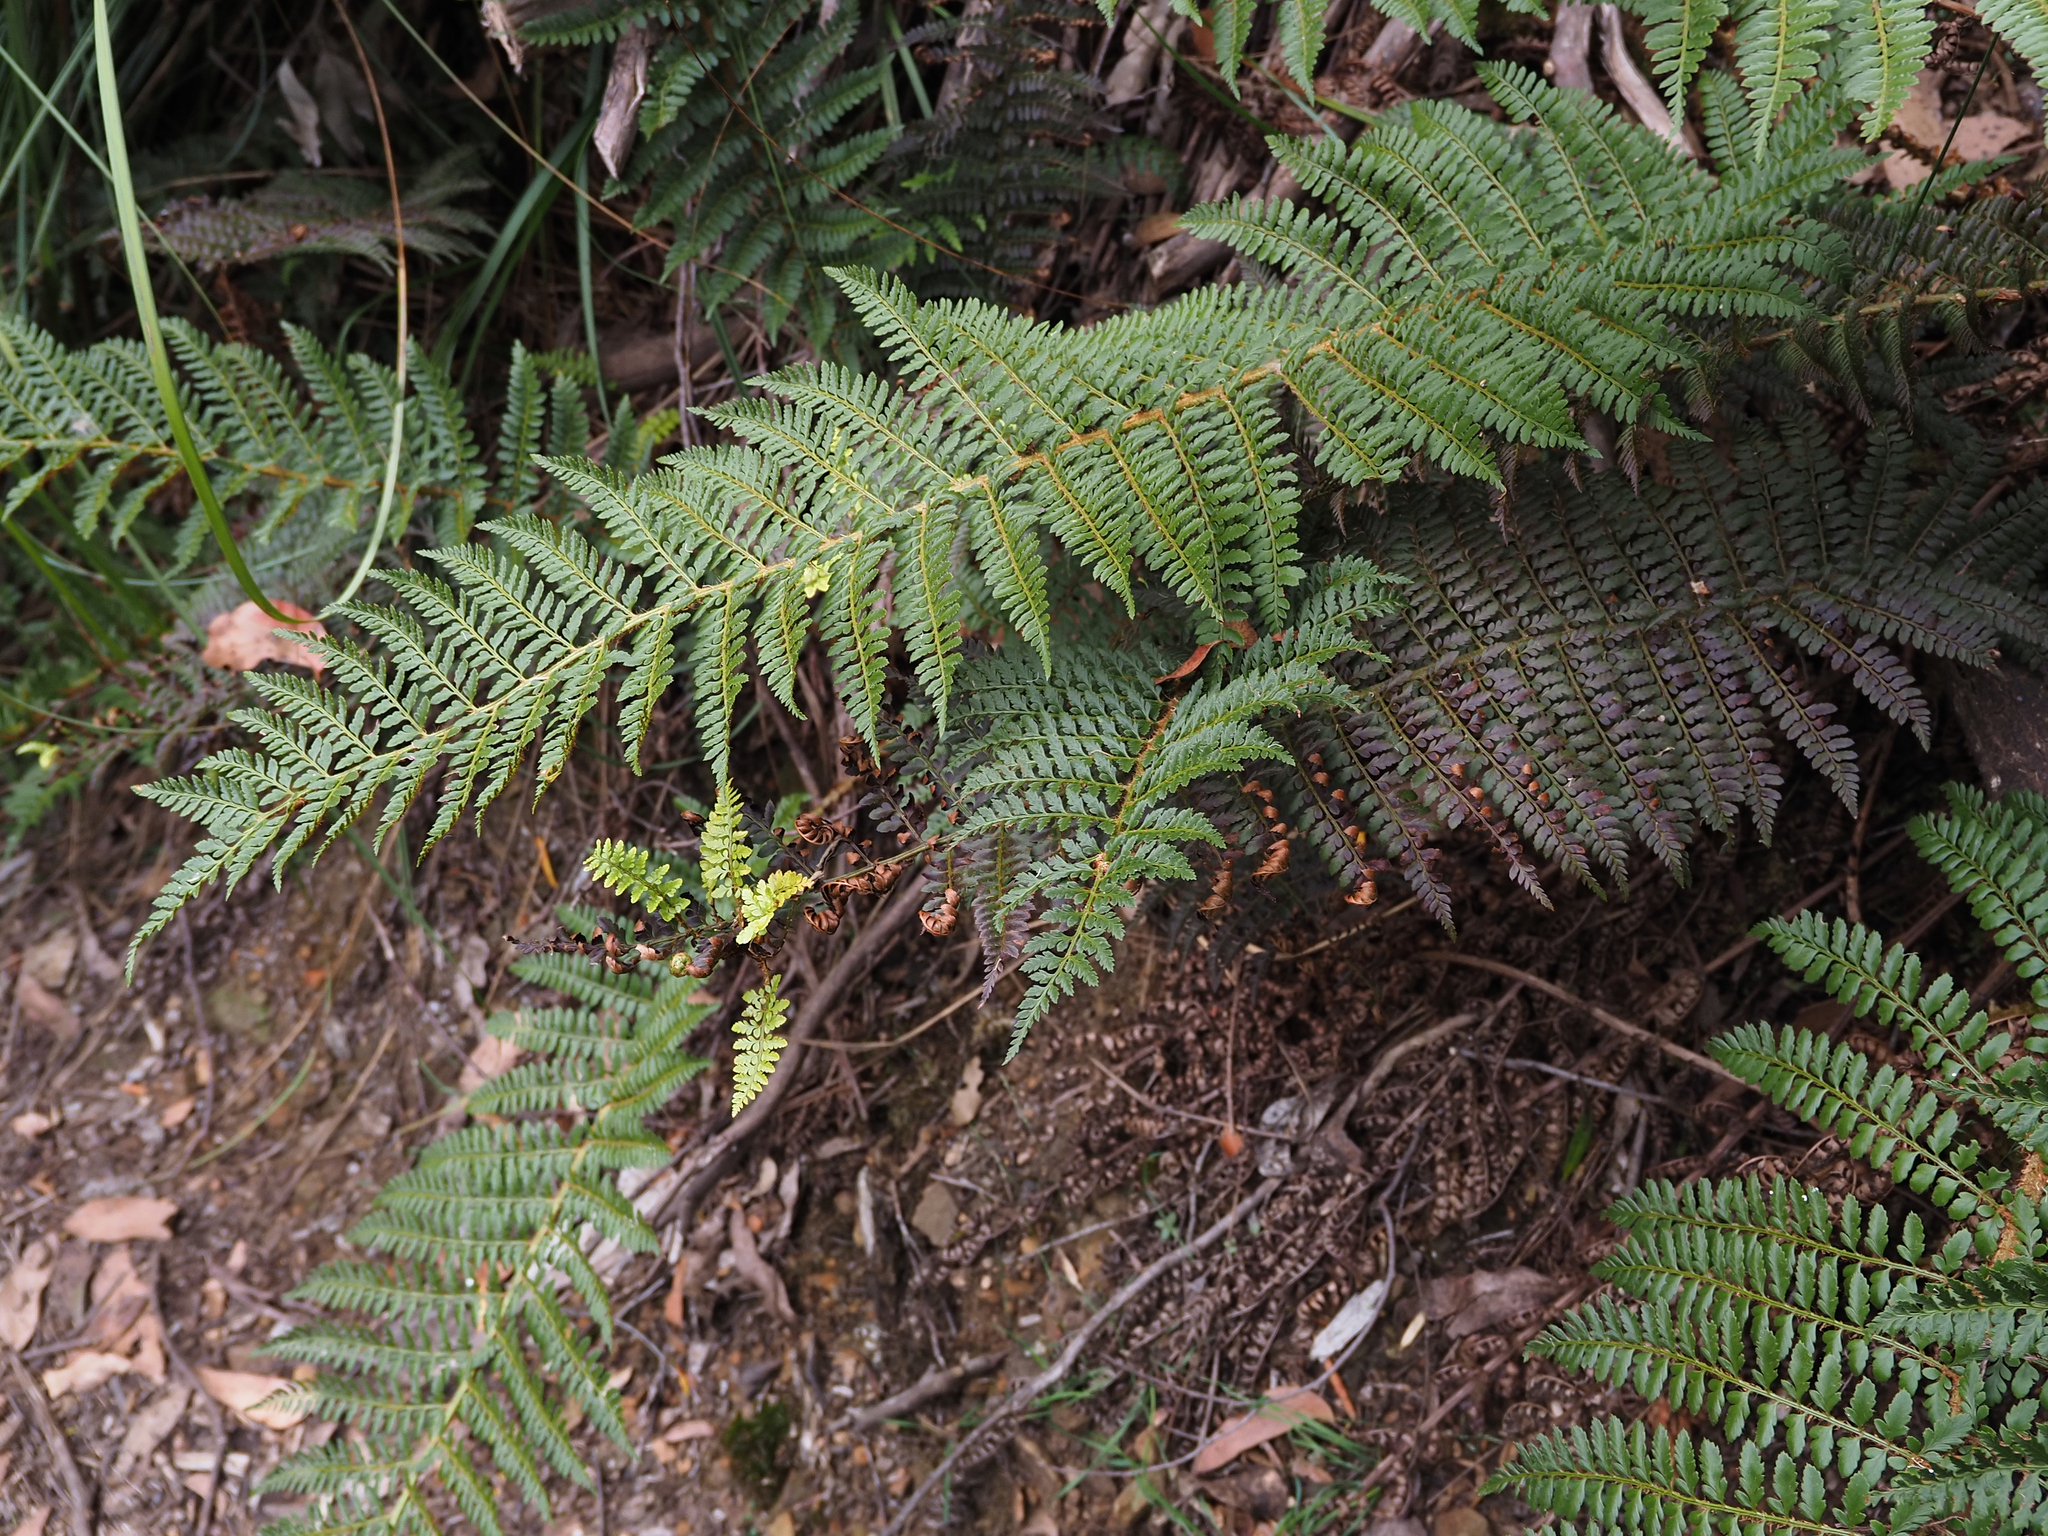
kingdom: Plantae
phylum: Tracheophyta
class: Polypodiopsida
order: Polypodiales
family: Dryopteridaceae
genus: Polystichum
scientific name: Polystichum proliferum
